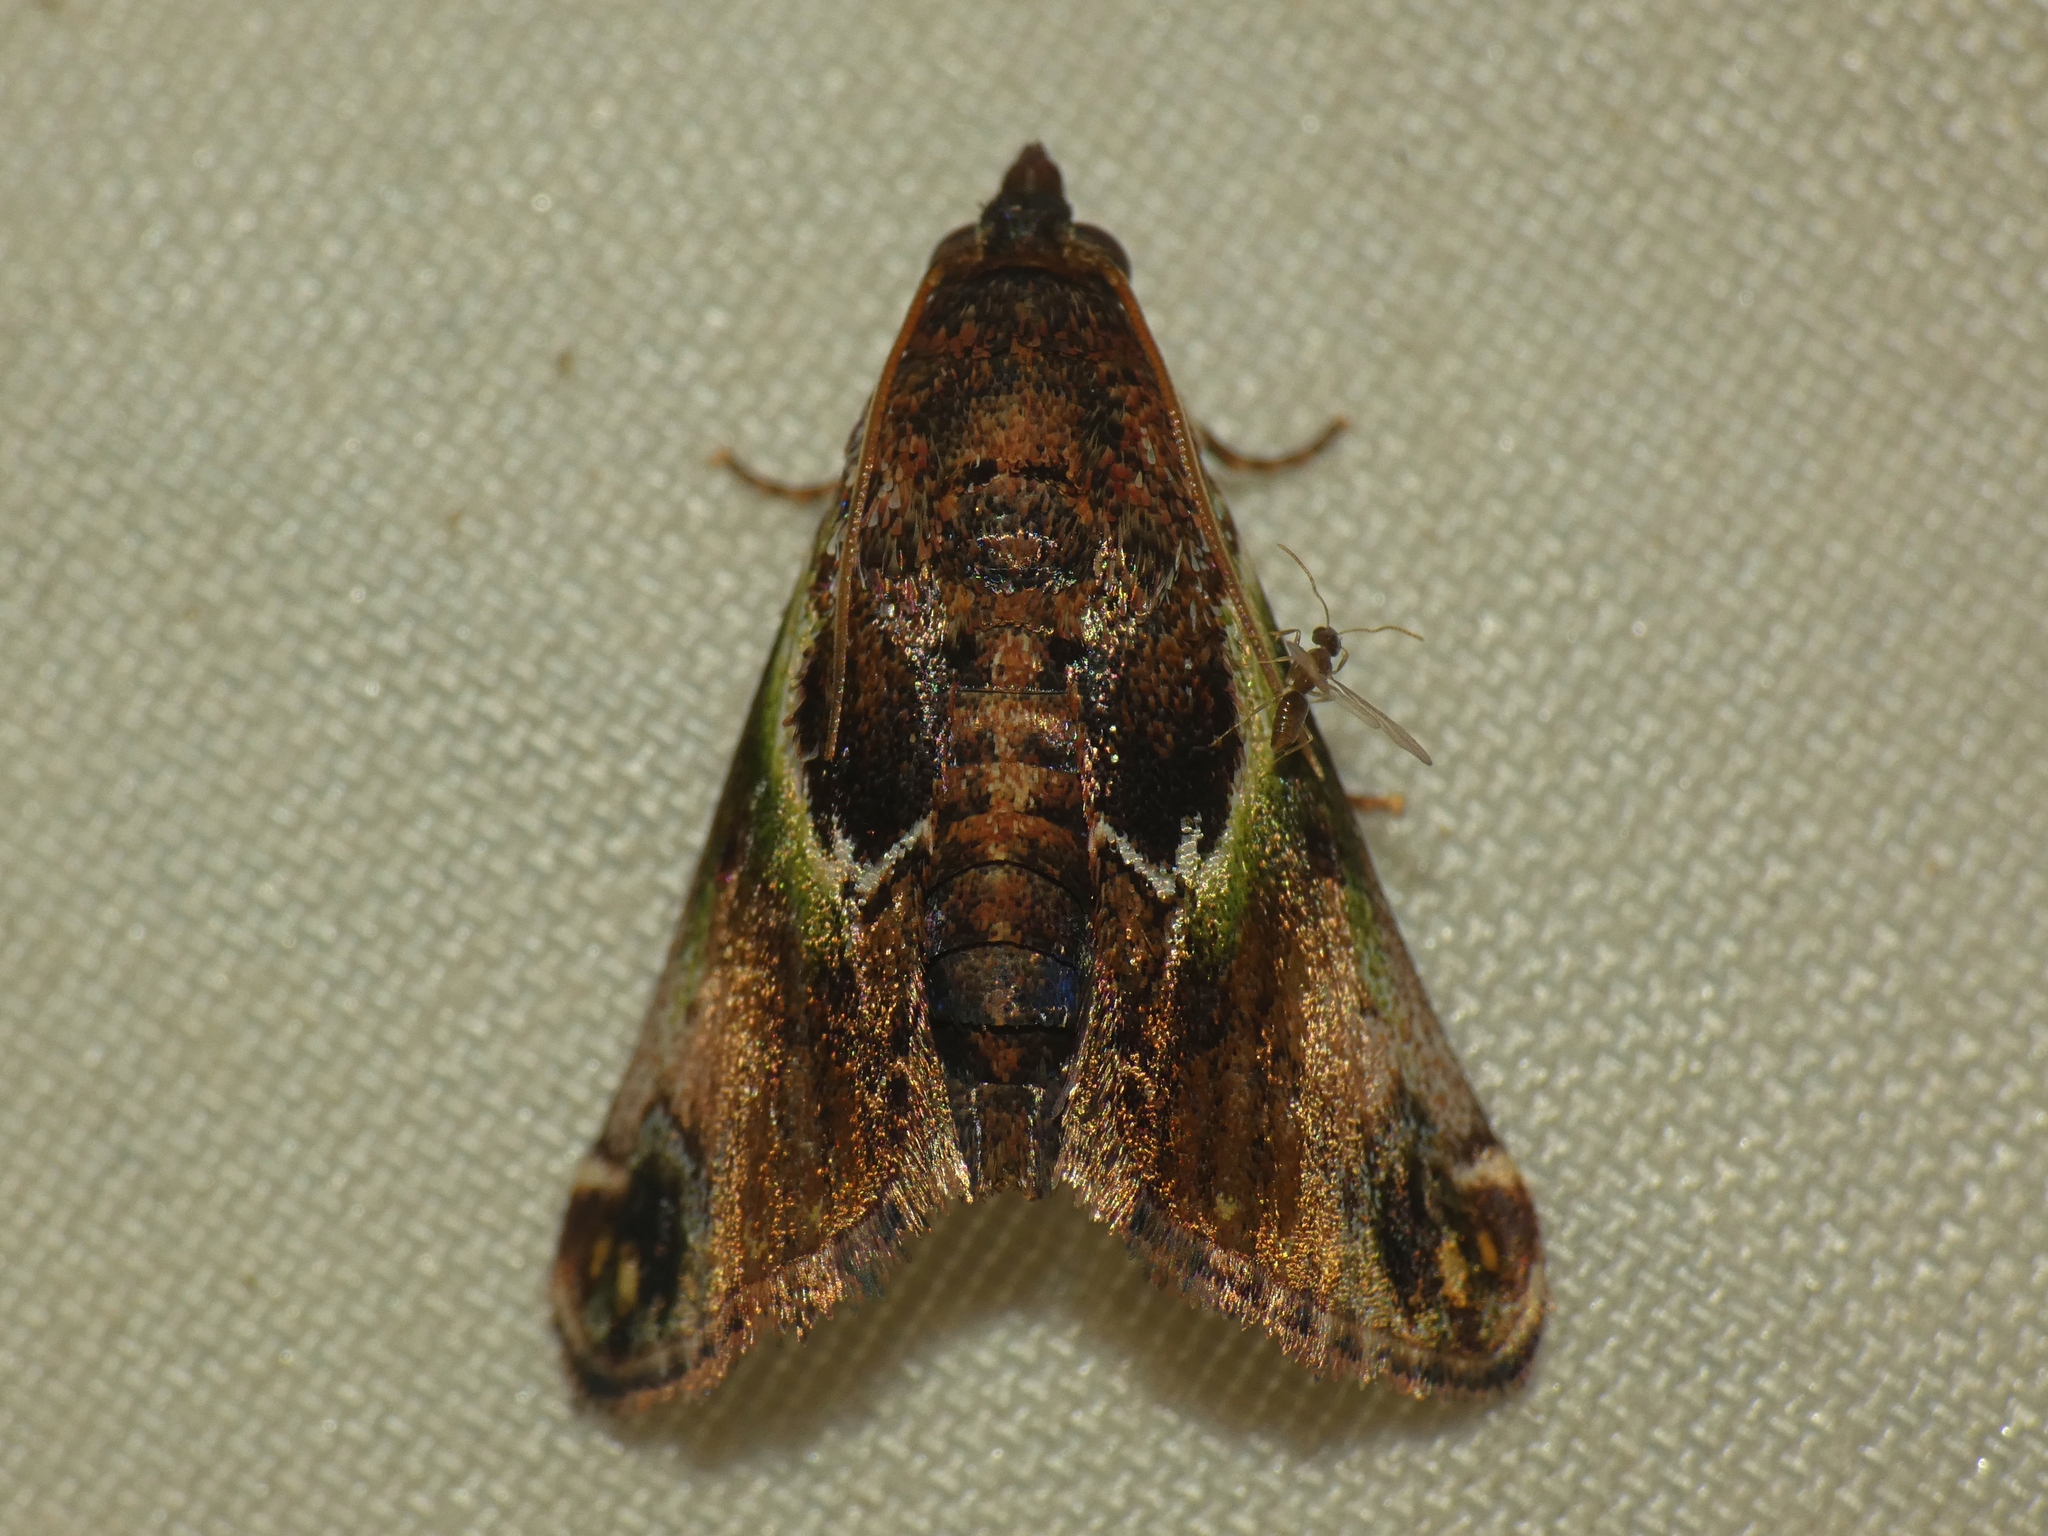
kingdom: Animalia
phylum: Arthropoda
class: Insecta
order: Lepidoptera
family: Pyralidae
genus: Doddiana
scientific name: Doddiana callizona
